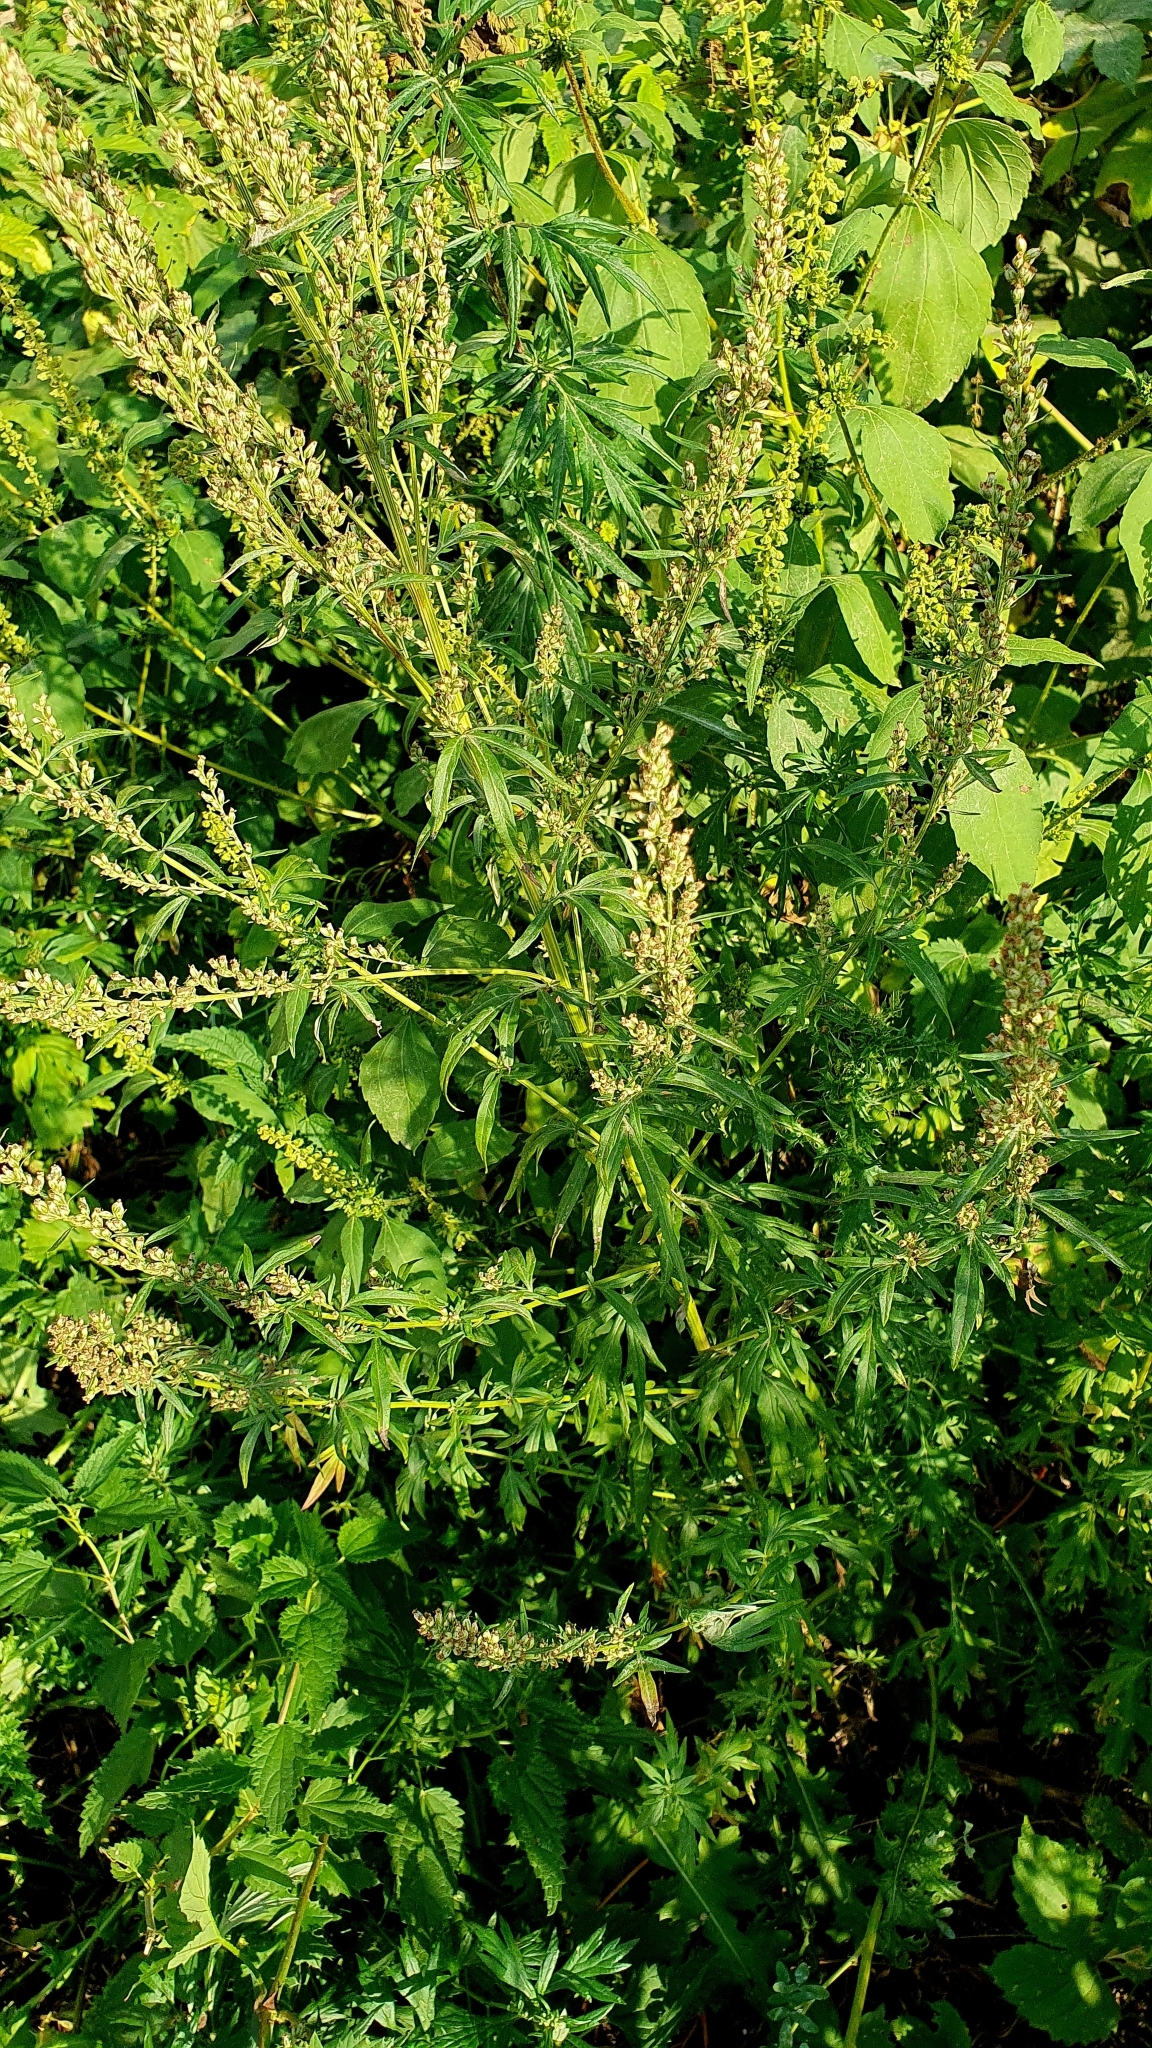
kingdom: Plantae
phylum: Tracheophyta
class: Magnoliopsida
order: Asterales
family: Asteraceae
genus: Artemisia
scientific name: Artemisia vulgaris
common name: Mugwort
